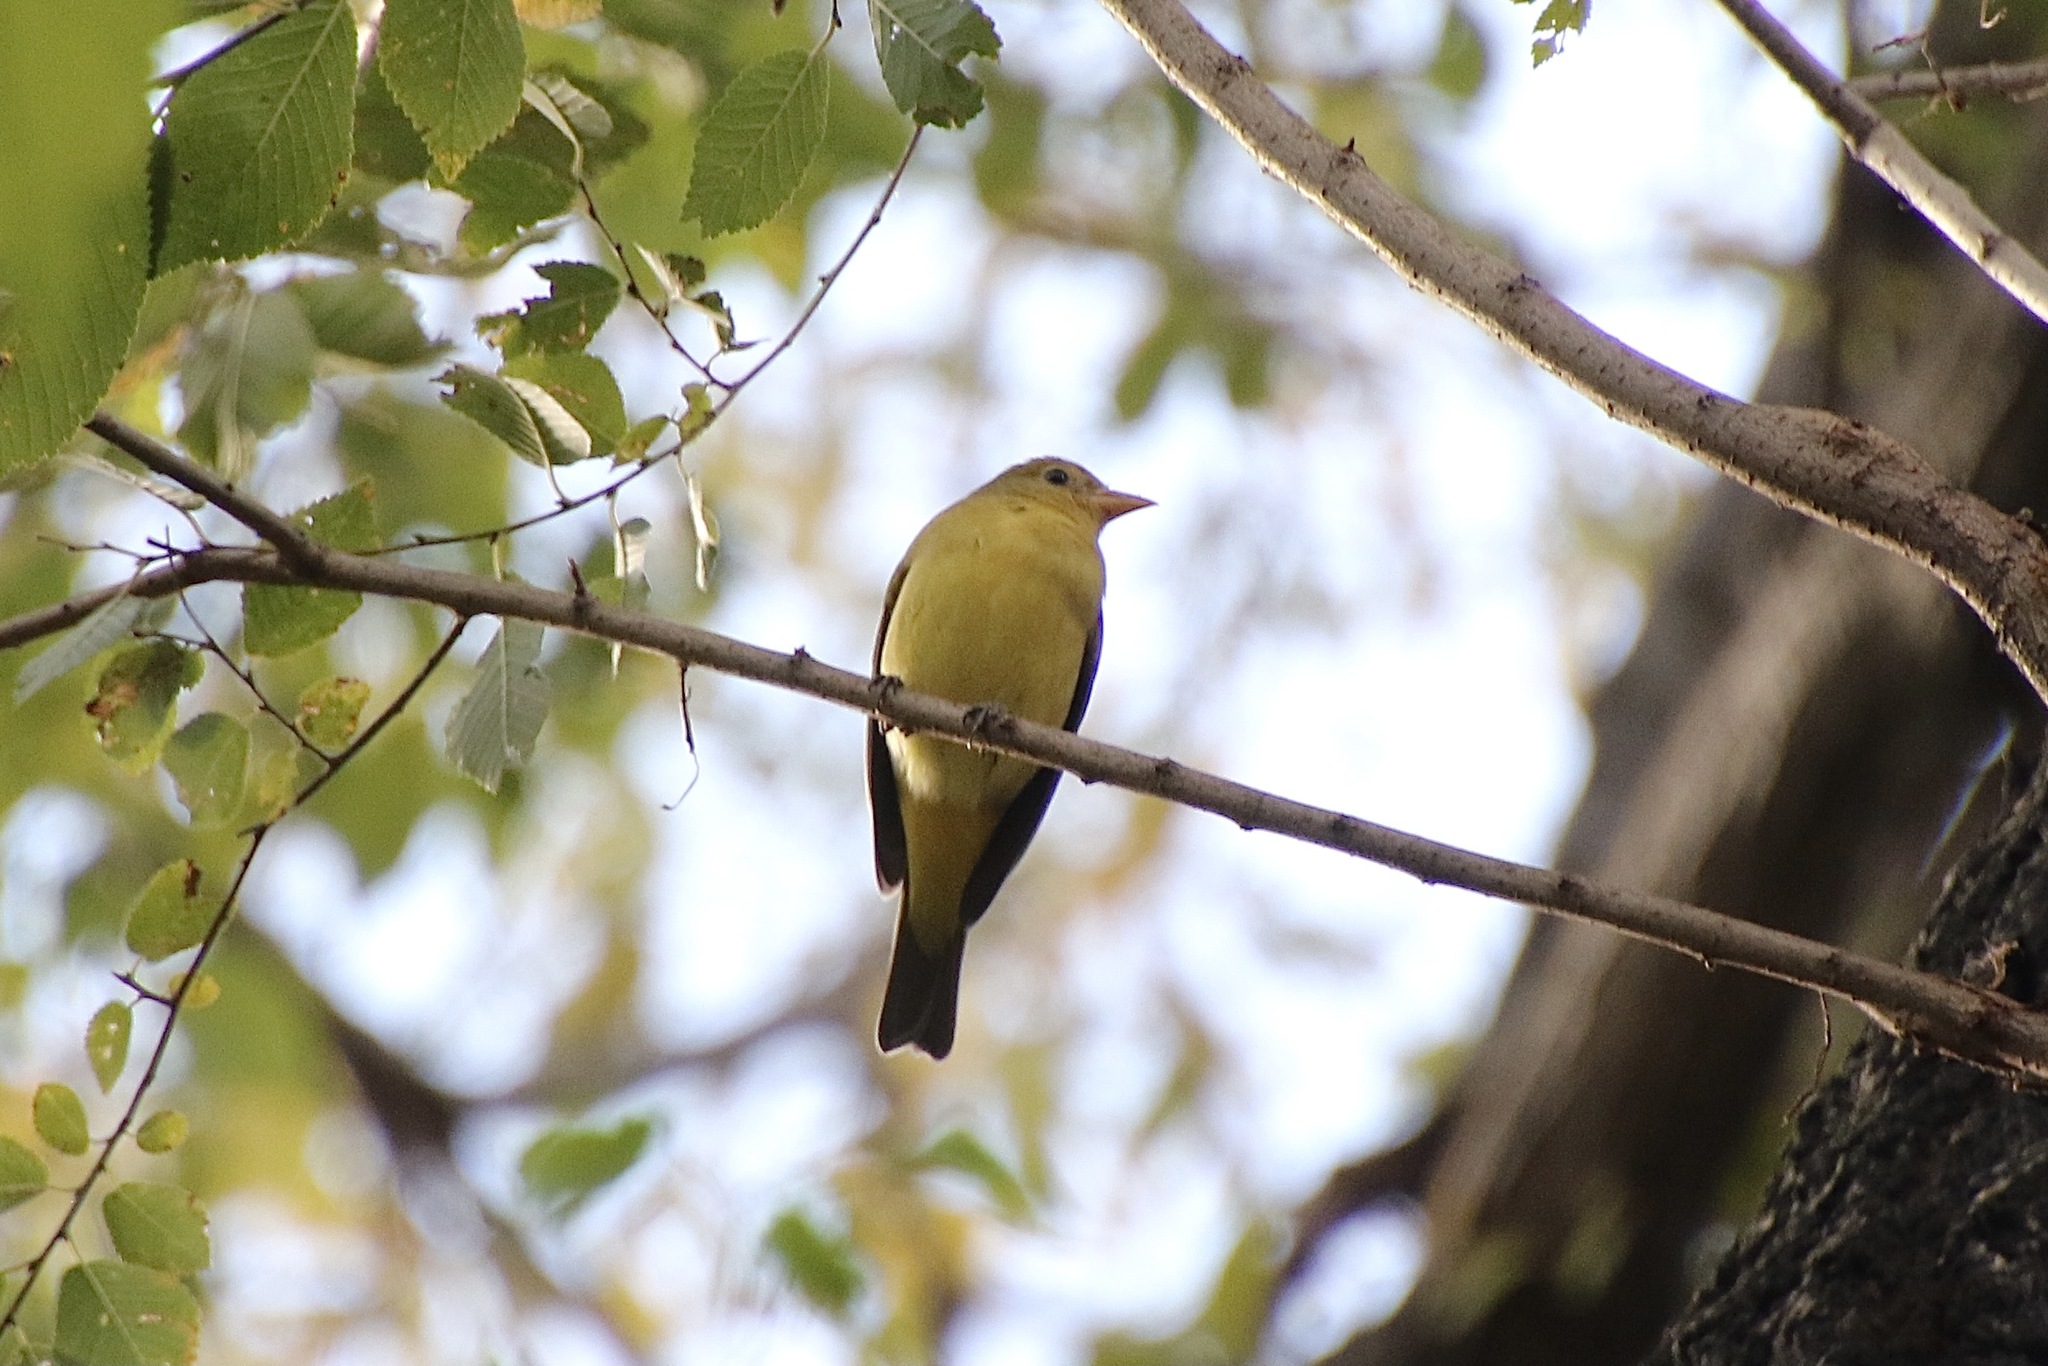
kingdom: Animalia
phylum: Chordata
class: Aves
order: Passeriformes
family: Cardinalidae
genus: Piranga
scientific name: Piranga ludoviciana
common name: Western tanager
